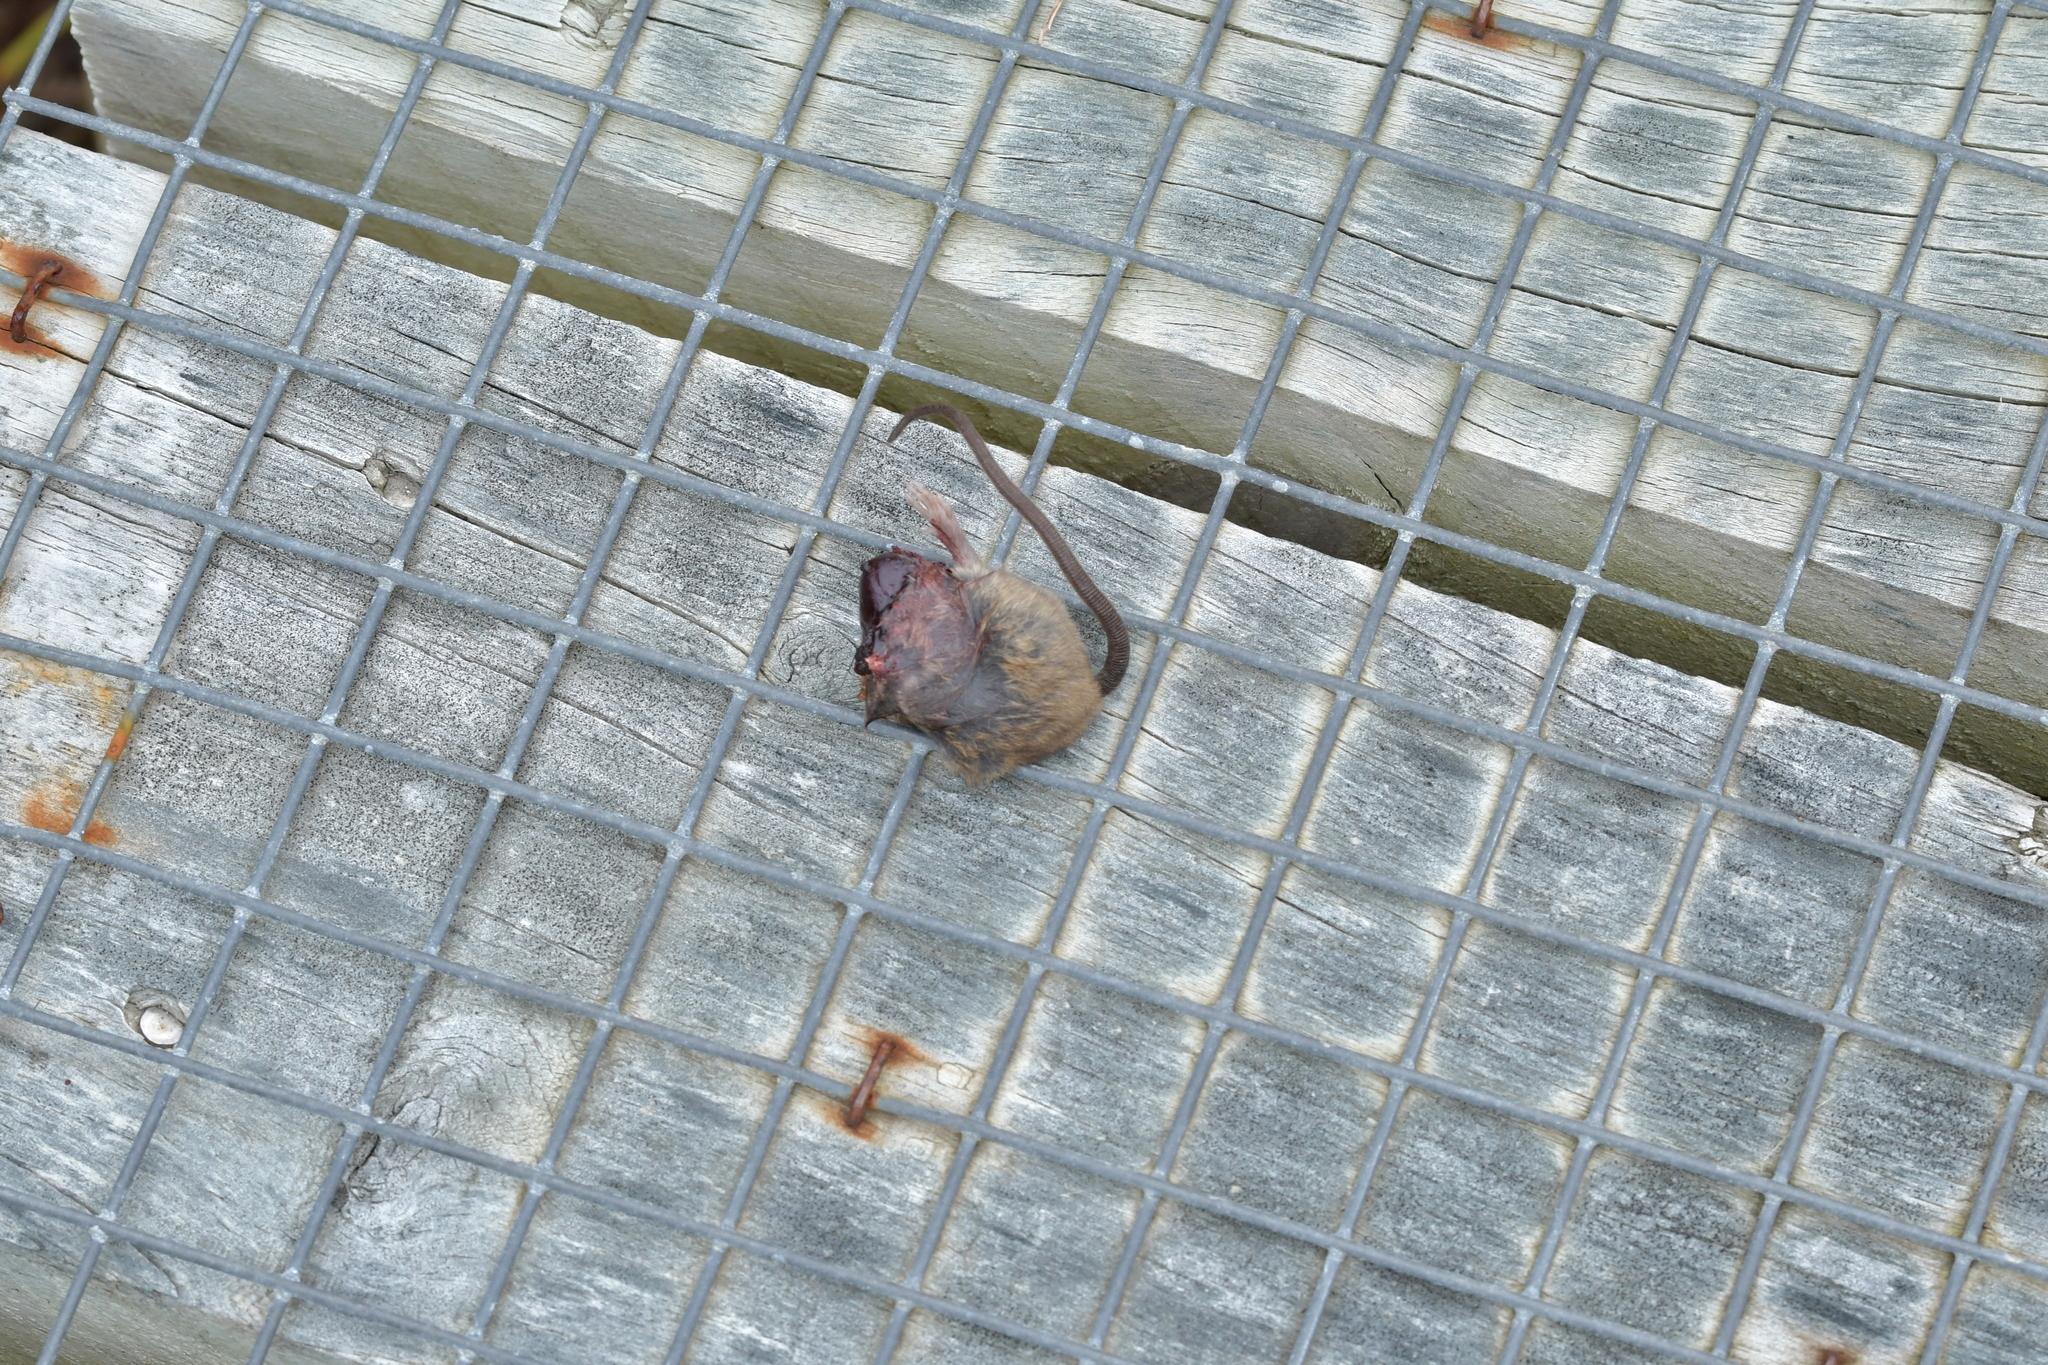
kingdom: Animalia
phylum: Chordata
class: Mammalia
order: Rodentia
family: Muridae
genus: Mus
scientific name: Mus musculus
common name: House mouse
